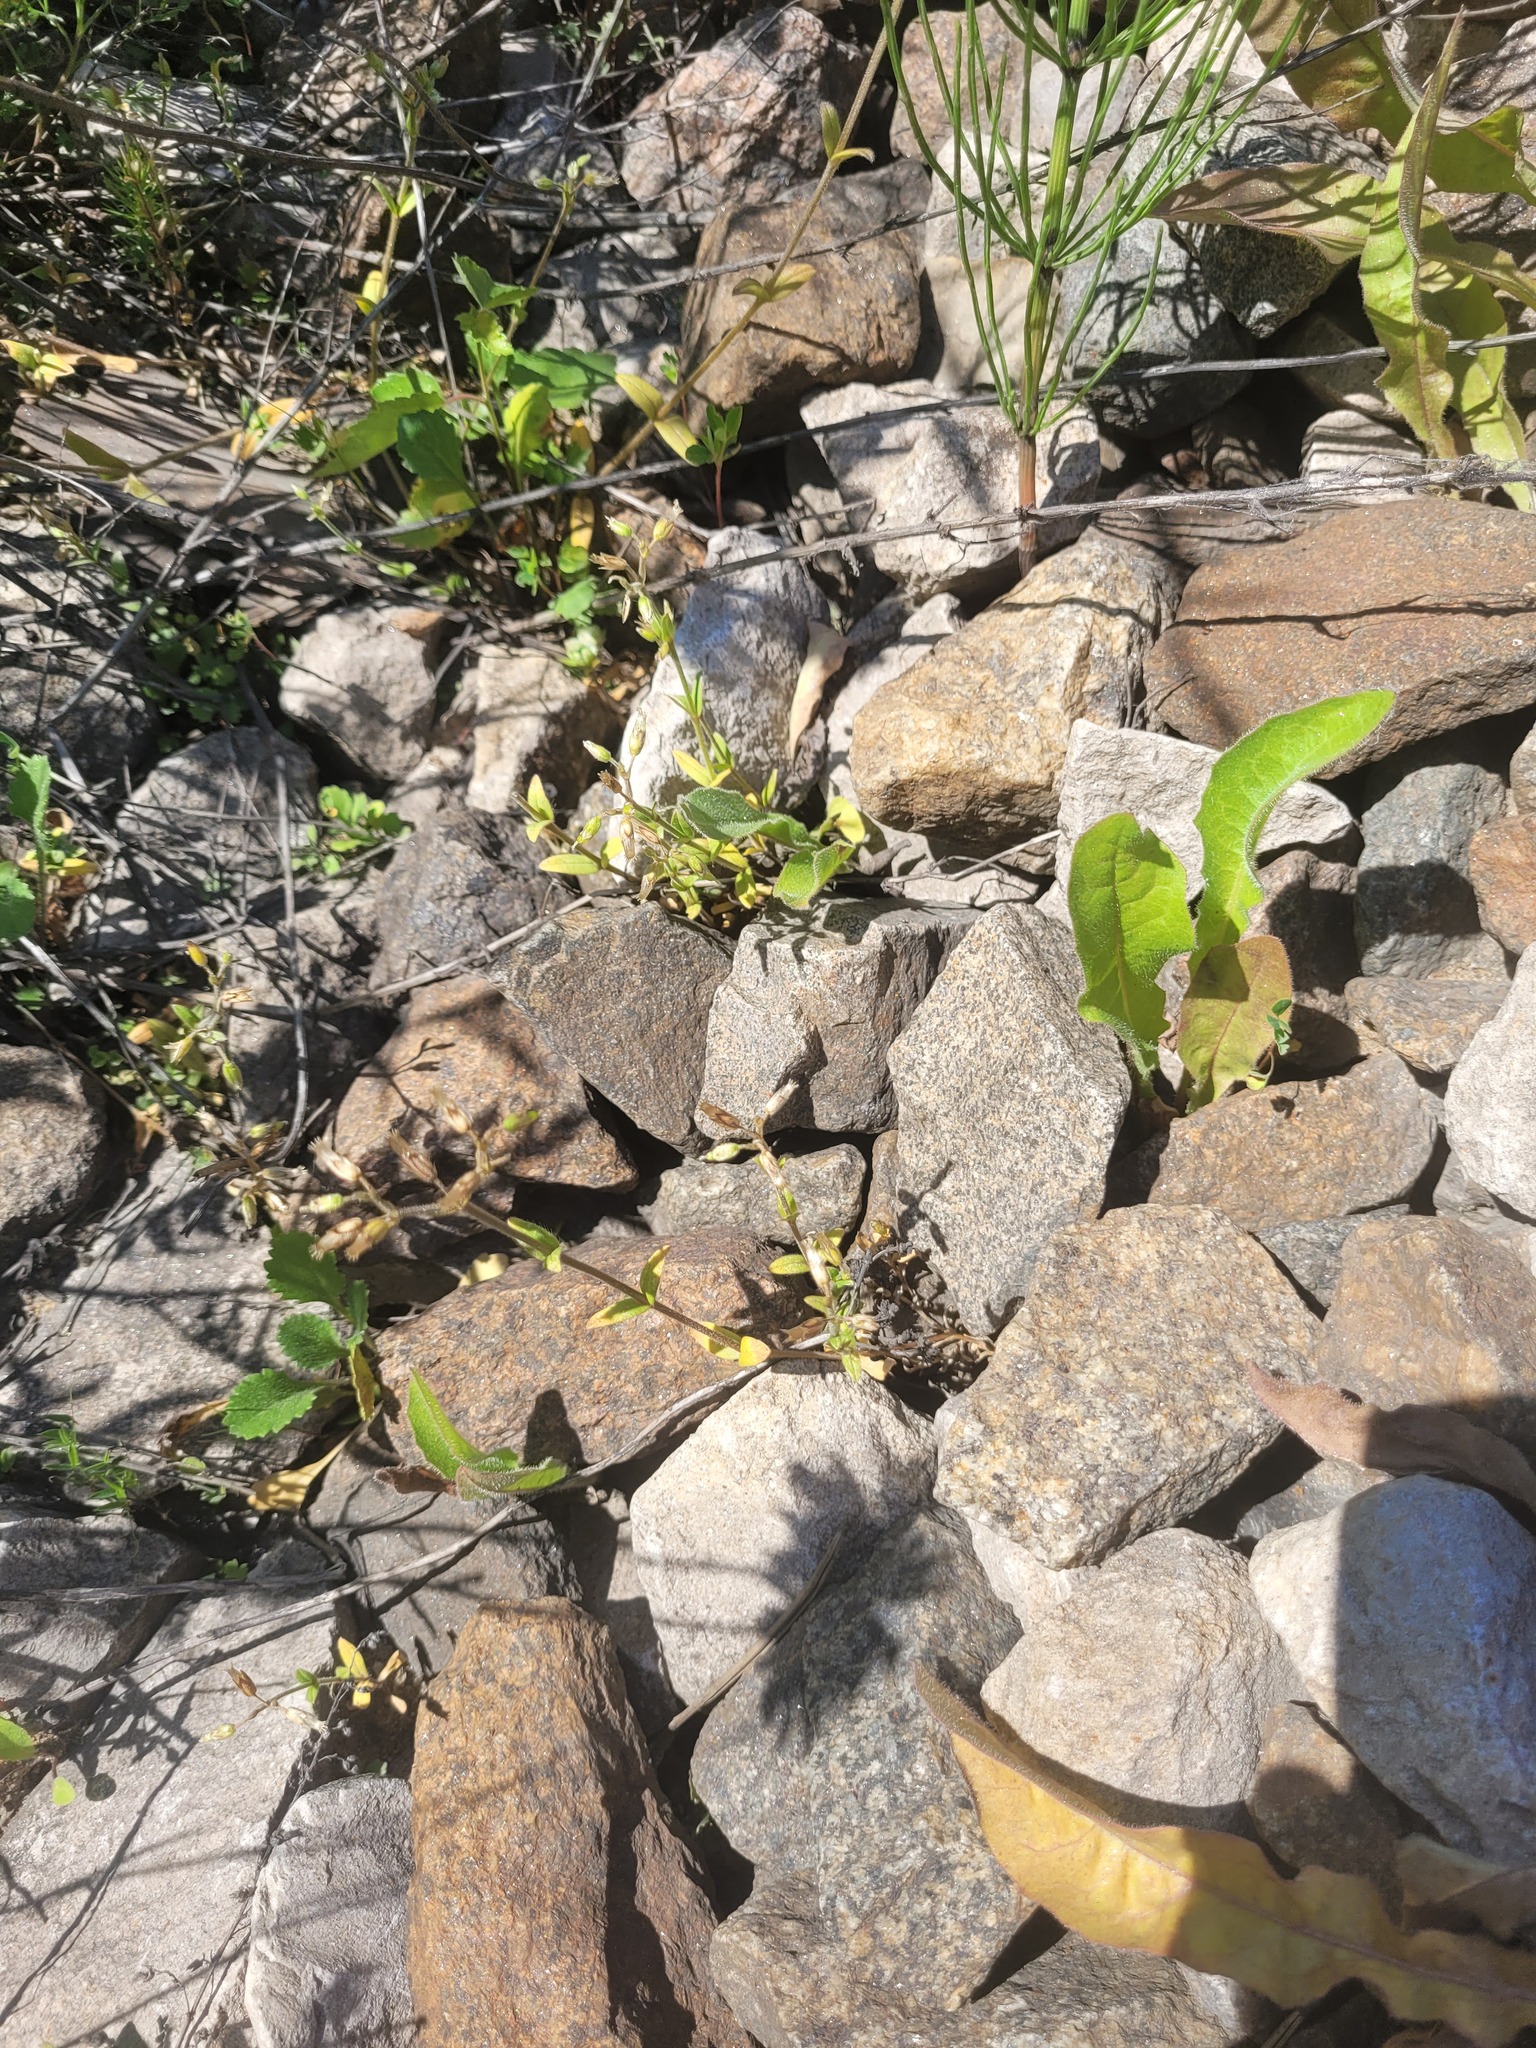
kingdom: Plantae
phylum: Tracheophyta
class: Magnoliopsida
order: Caryophyllales
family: Caryophyllaceae
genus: Cerastium
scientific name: Cerastium holosteoides
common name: Big chickweed
